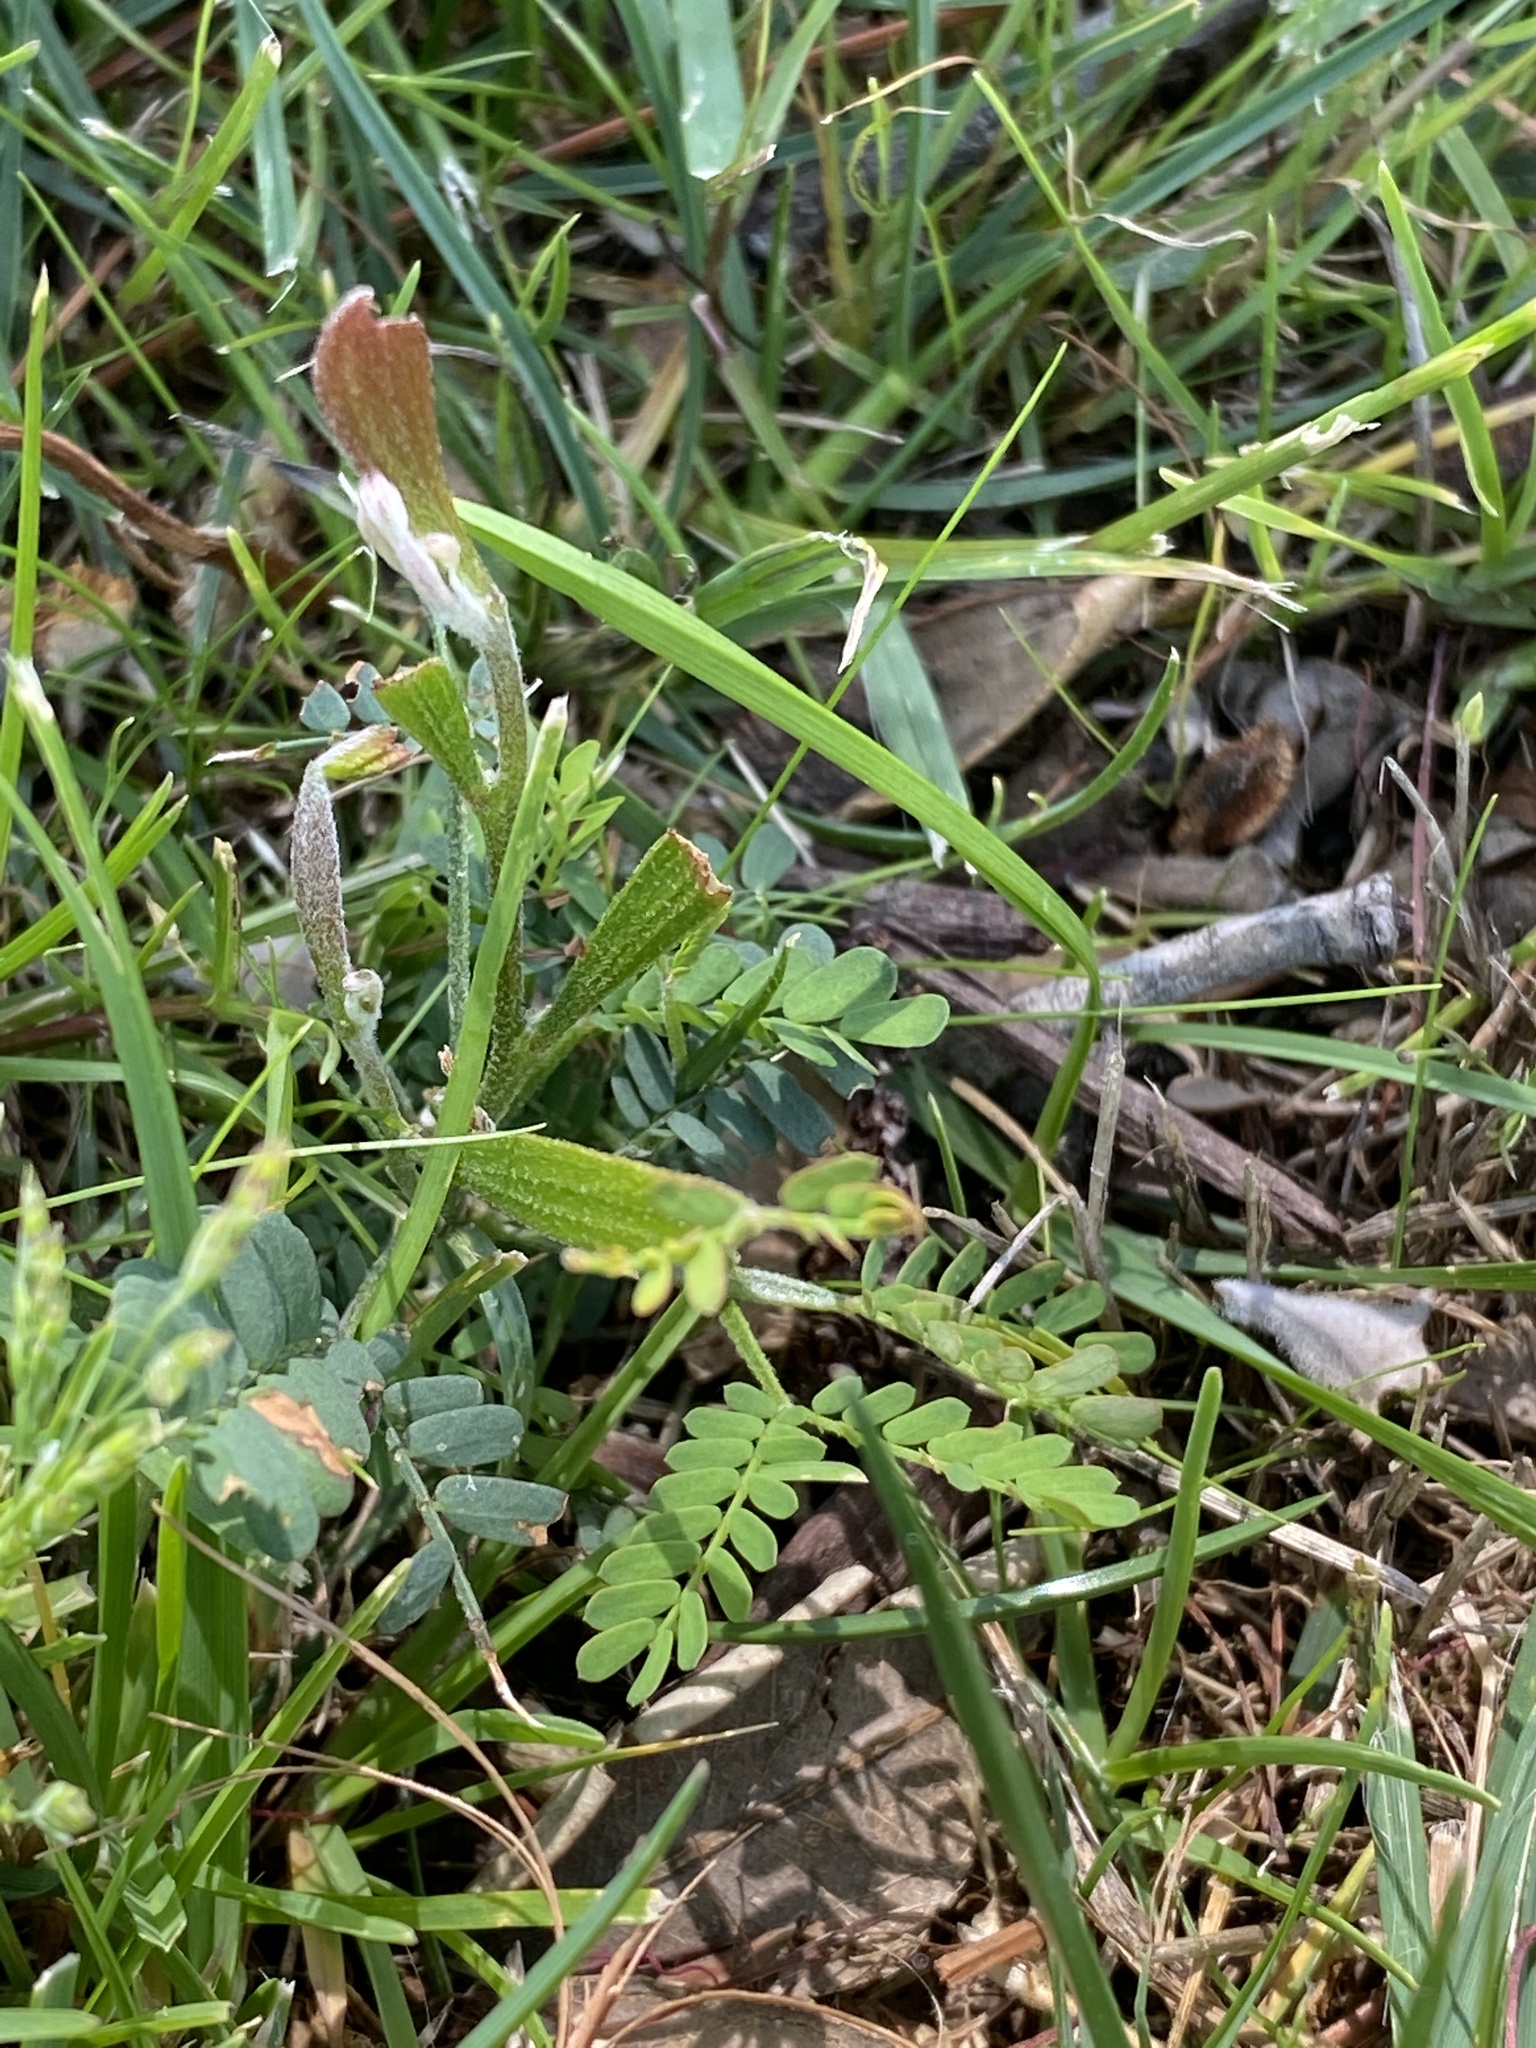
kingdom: Plantae
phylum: Tracheophyta
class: Magnoliopsida
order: Fabales
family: Fabaceae
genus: Acacia
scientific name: Acacia melanoxylon
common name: Blackwood
